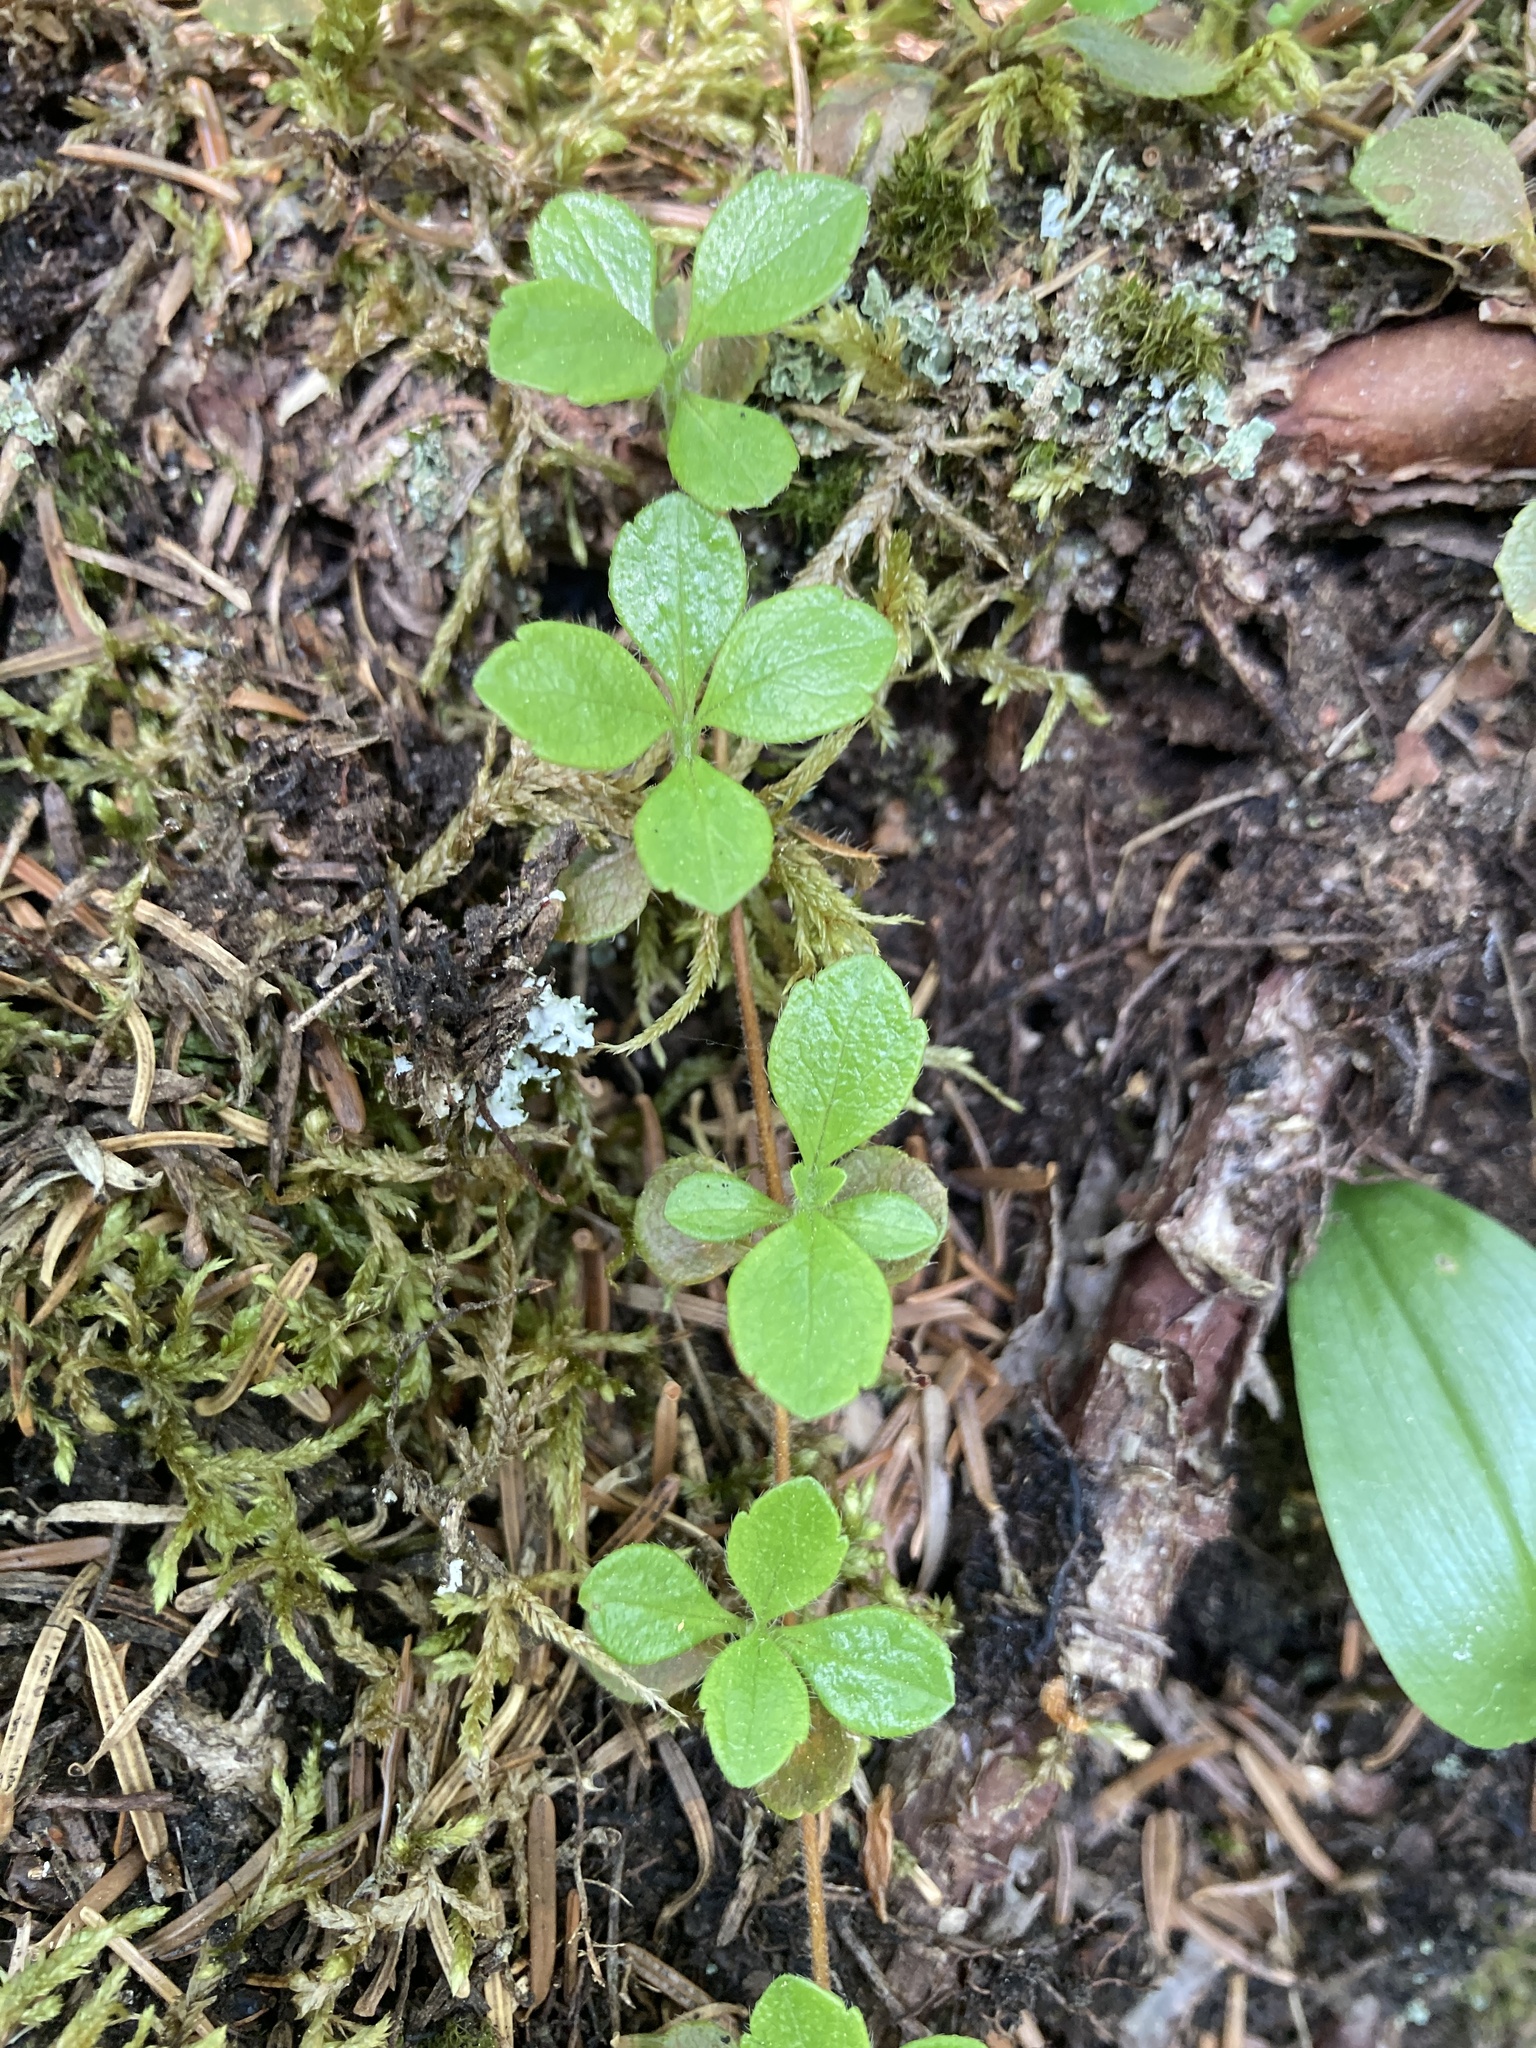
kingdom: Plantae
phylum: Tracheophyta
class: Magnoliopsida
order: Dipsacales
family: Caprifoliaceae
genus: Linnaea
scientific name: Linnaea borealis
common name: Twinflower
